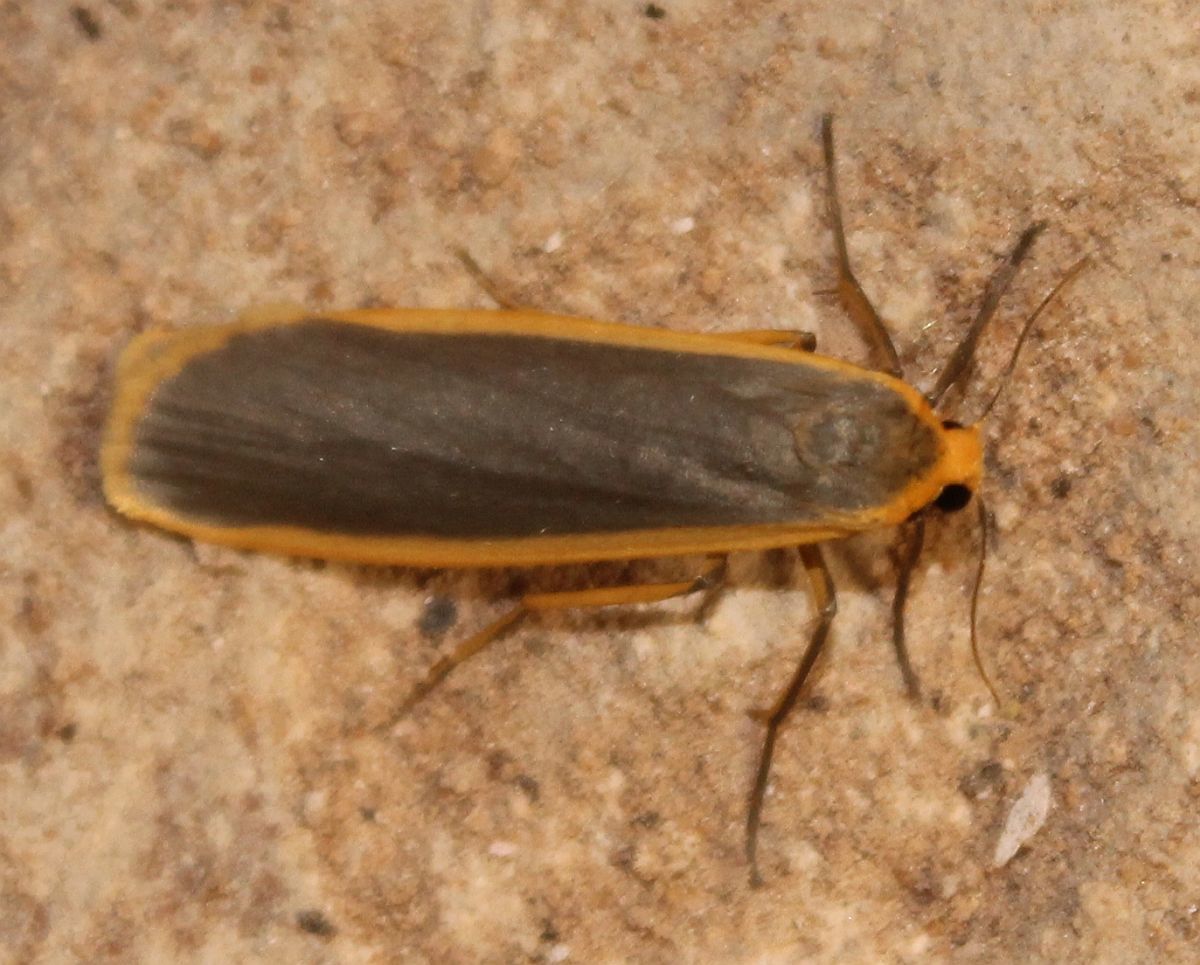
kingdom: Animalia
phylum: Arthropoda
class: Insecta
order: Lepidoptera
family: Erebidae
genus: Nyea
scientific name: Nyea lurideola
